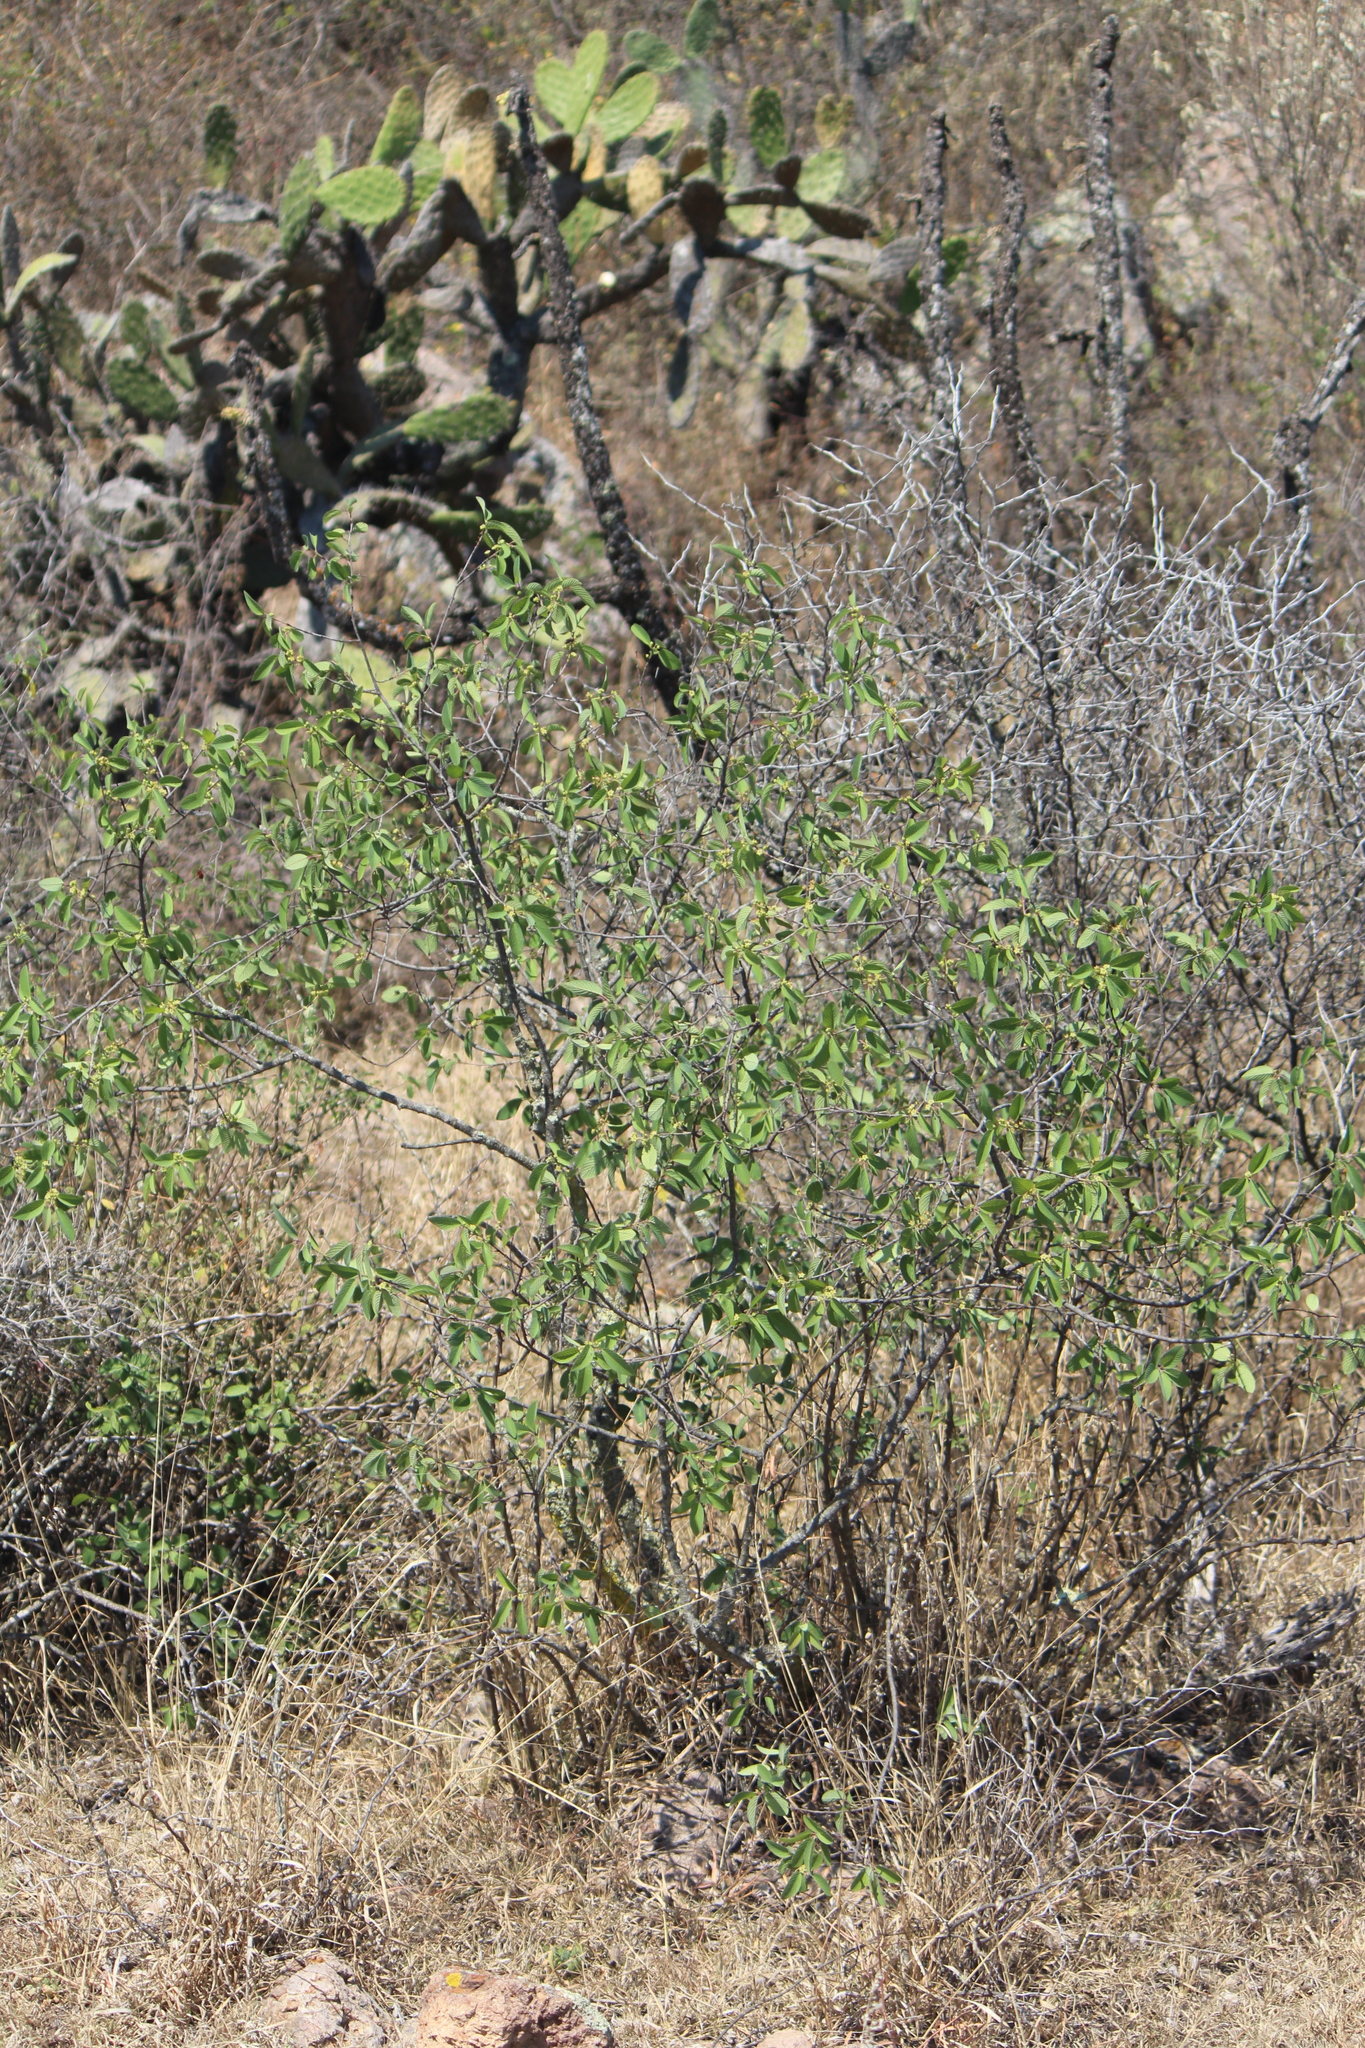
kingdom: Plantae
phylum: Tracheophyta
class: Magnoliopsida
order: Rosales
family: Rhamnaceae
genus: Karwinskia
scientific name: Karwinskia humboldtiana
